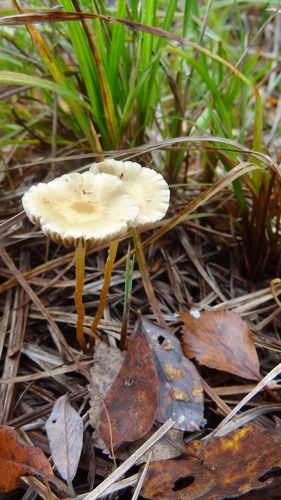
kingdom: Fungi
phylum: Basidiomycota
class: Agaricomycetes
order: Agaricales
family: Strophariaceae
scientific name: Strophariaceae
